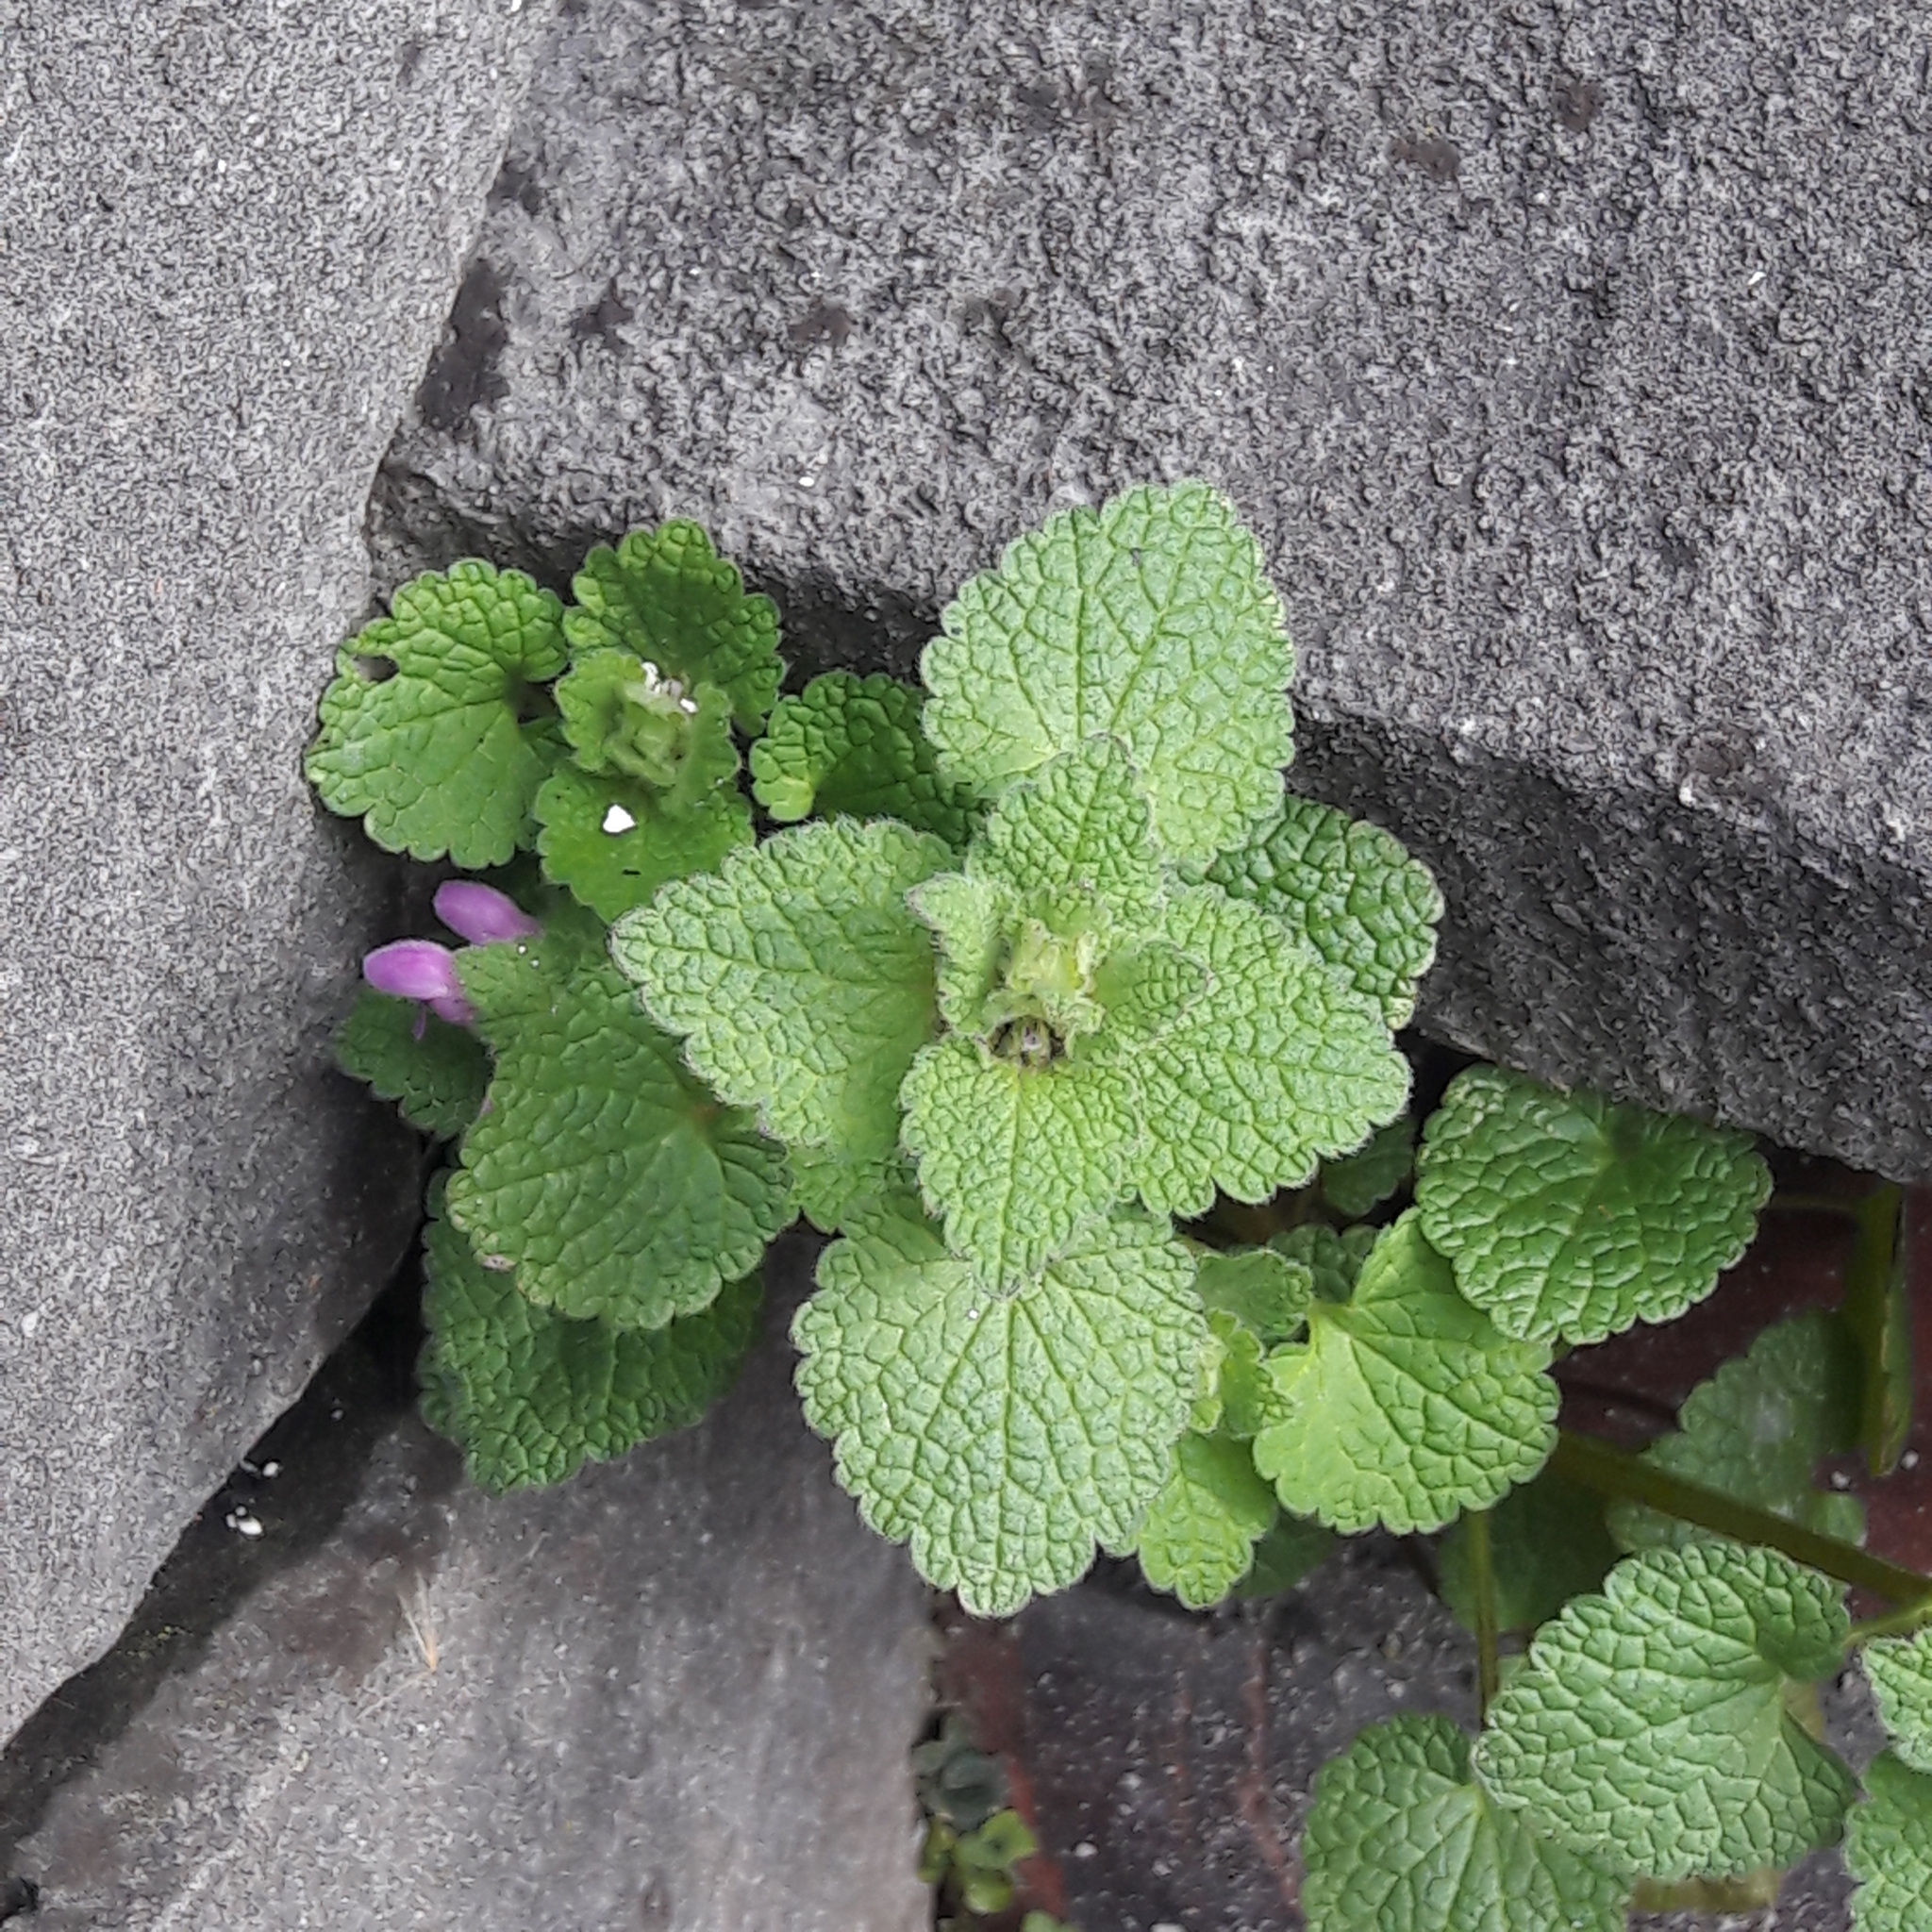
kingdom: Plantae
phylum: Tracheophyta
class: Magnoliopsida
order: Lamiales
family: Lamiaceae
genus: Lamium
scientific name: Lamium purpureum
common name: Red dead-nettle
